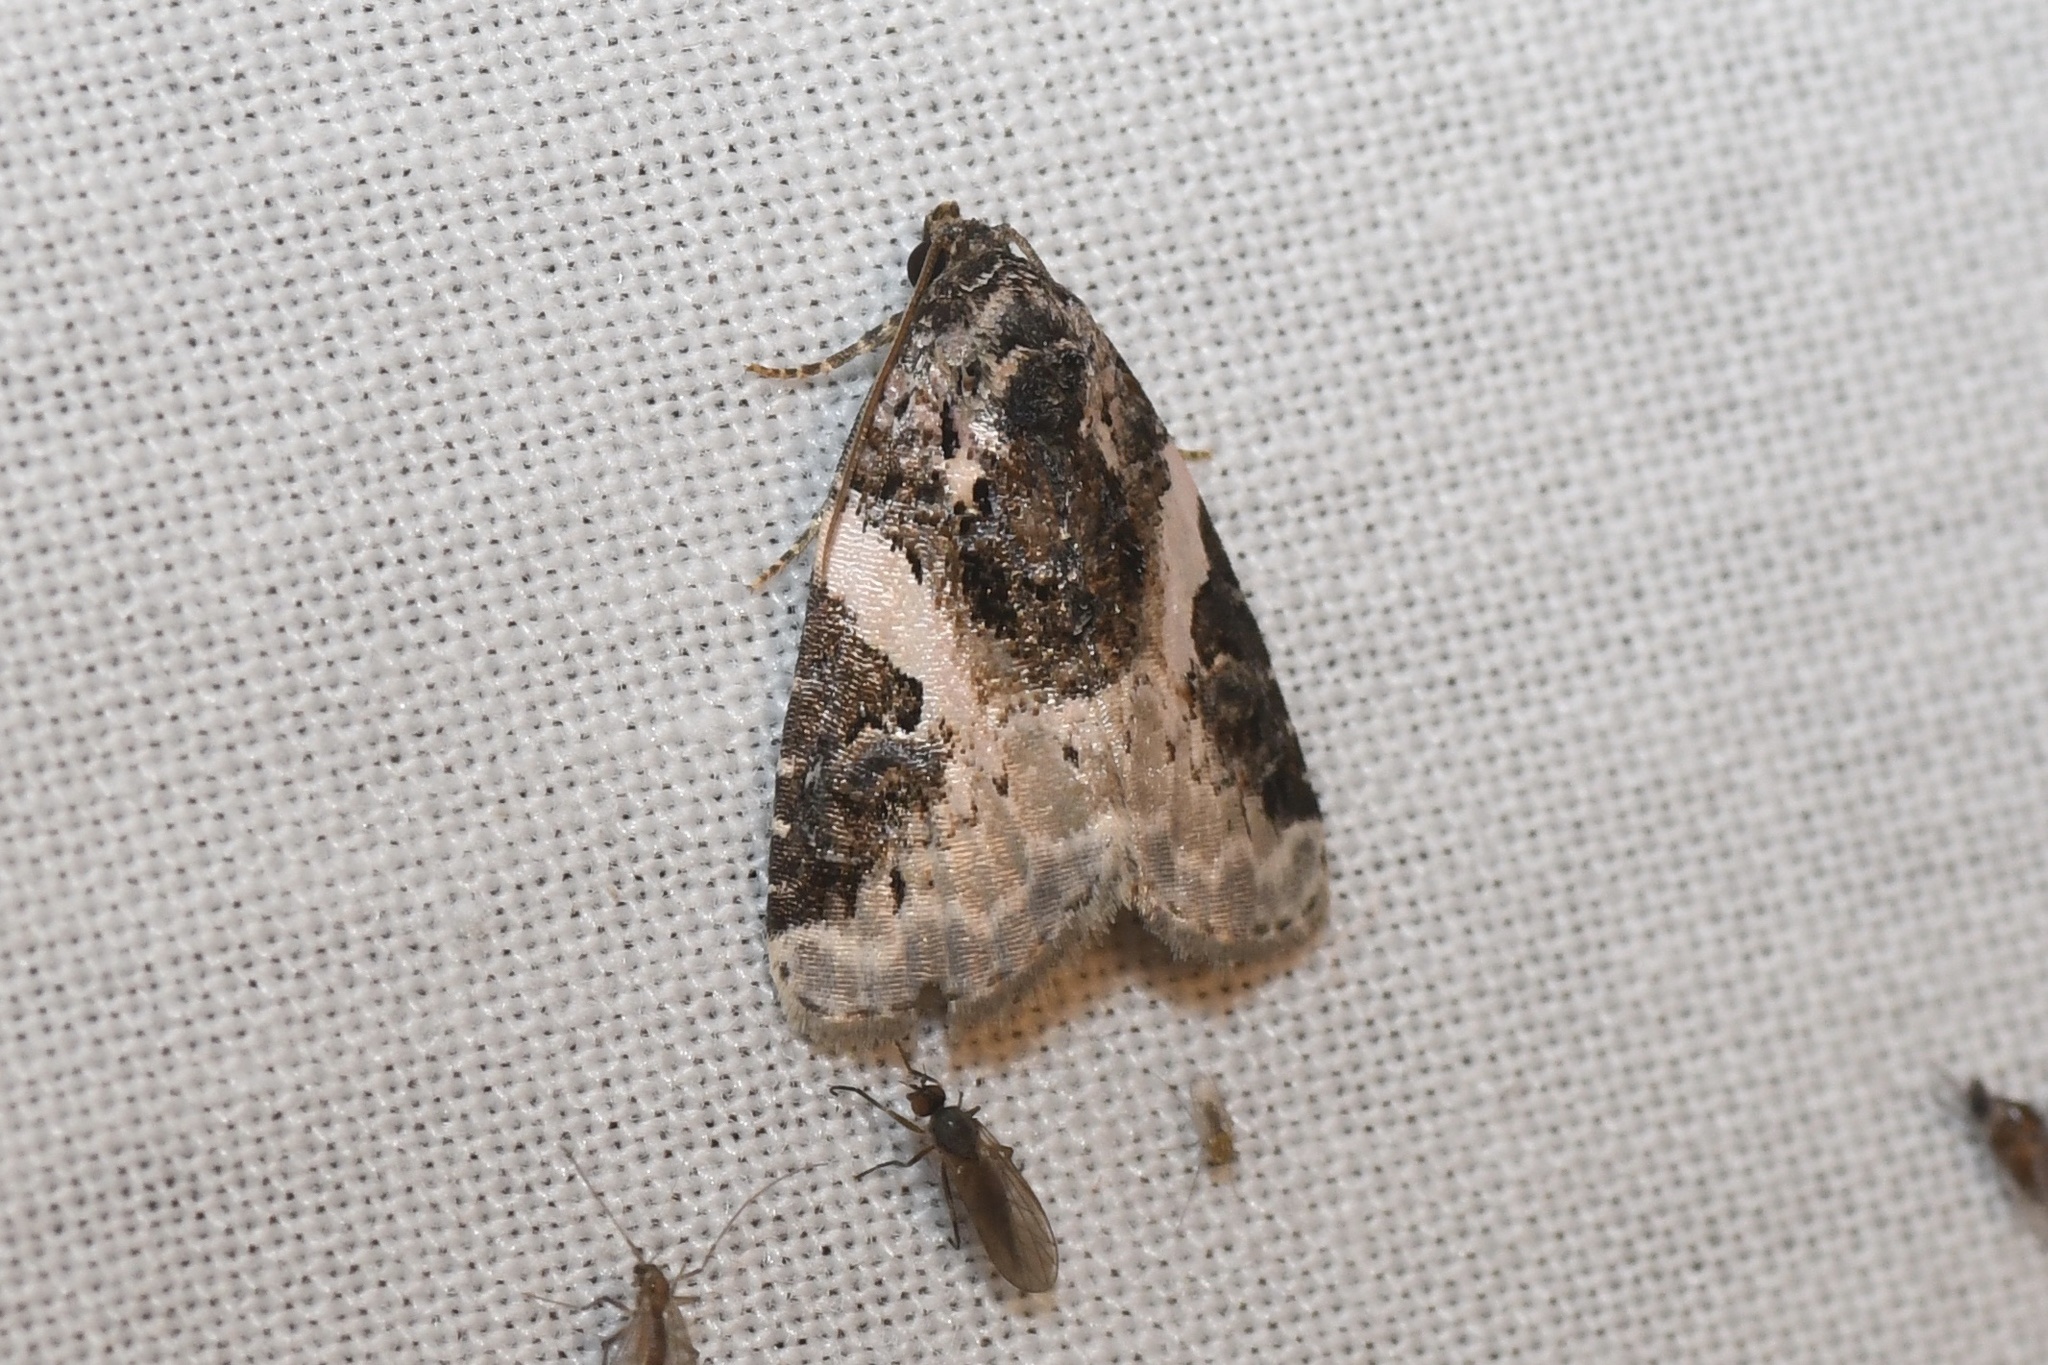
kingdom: Animalia
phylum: Arthropoda
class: Insecta
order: Lepidoptera
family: Noctuidae
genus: Pseudeustrotia
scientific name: Pseudeustrotia carneola
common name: Pink-barred lithacodia moth
